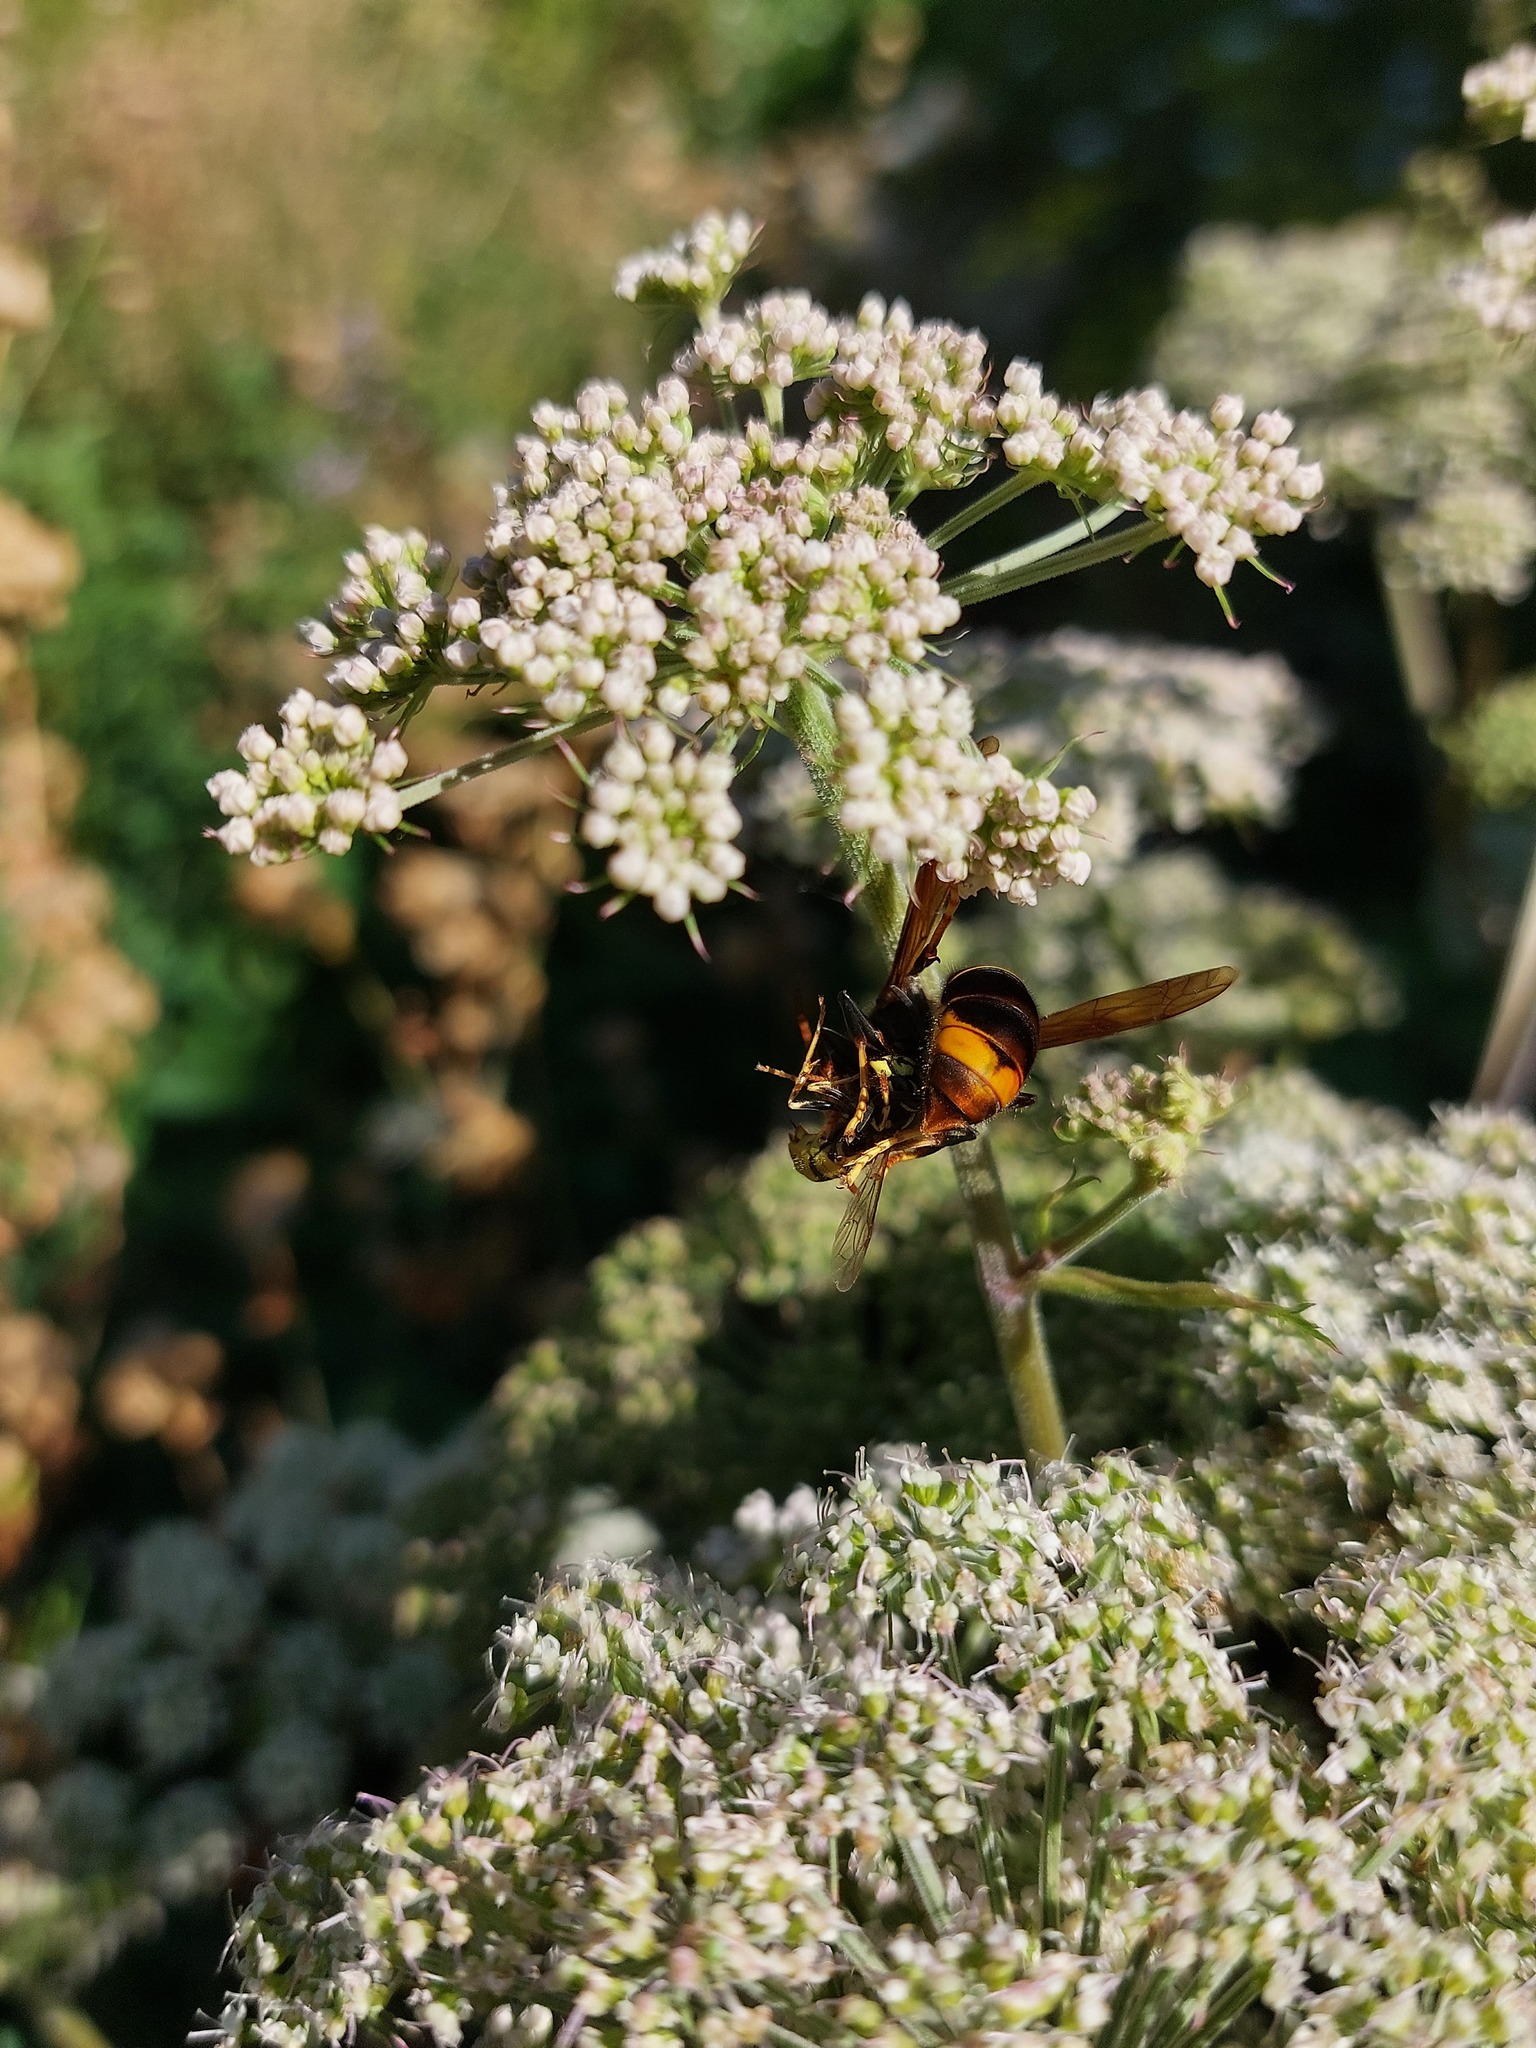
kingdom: Animalia
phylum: Arthropoda
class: Insecta
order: Hymenoptera
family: Vespidae
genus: Vespa
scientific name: Vespa velutina
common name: Asian hornet
